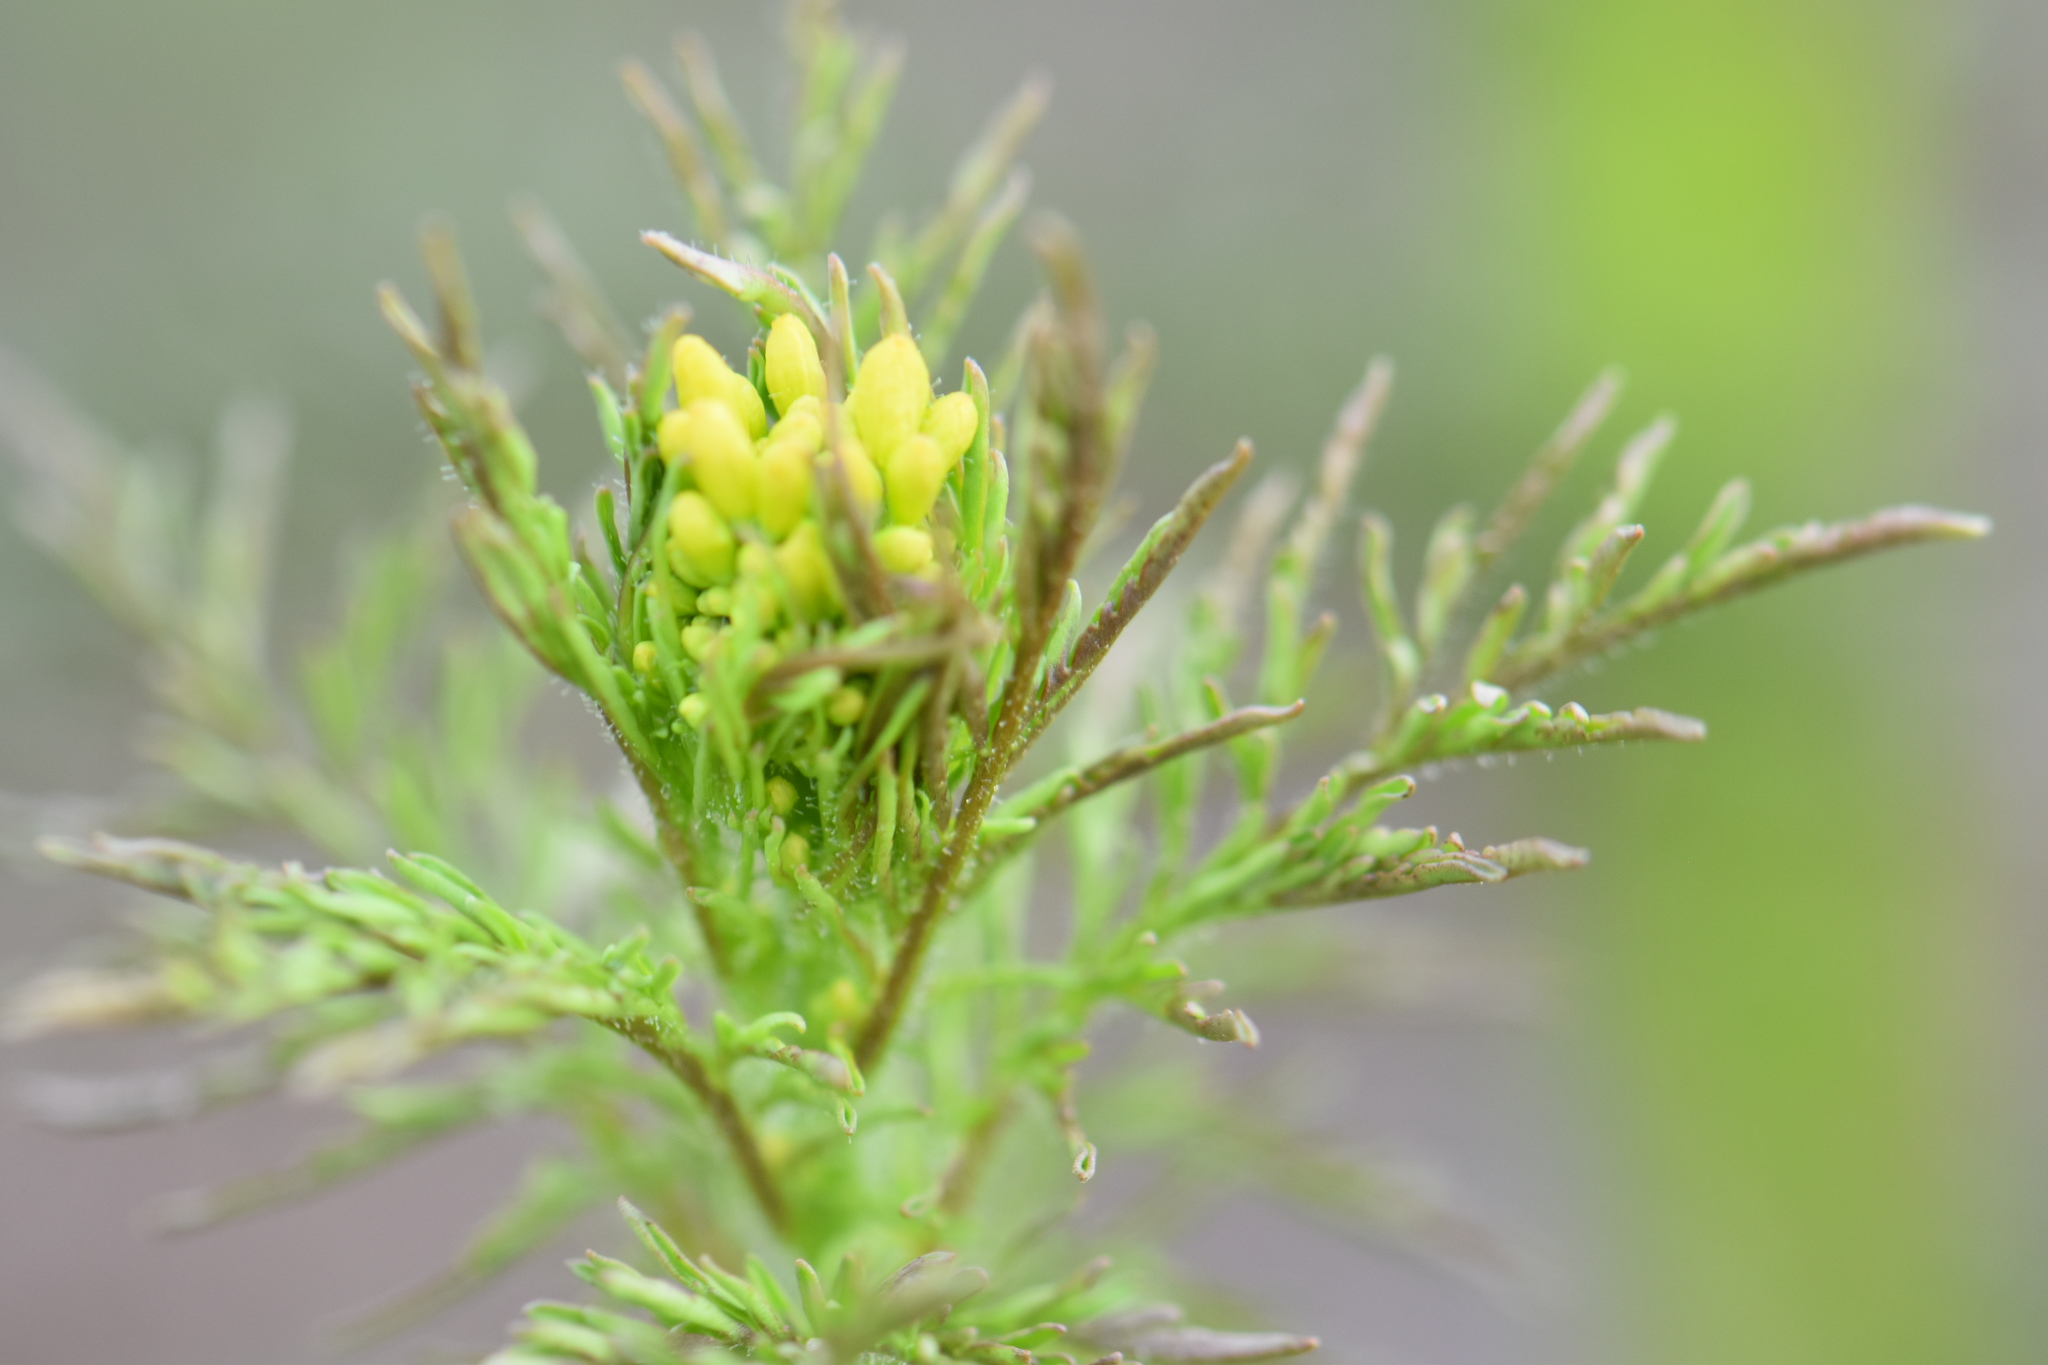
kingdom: Plantae
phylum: Tracheophyta
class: Magnoliopsida
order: Brassicales
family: Brassicaceae
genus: Descurainia
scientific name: Descurainia sophioides
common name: Northern tansy mustard
